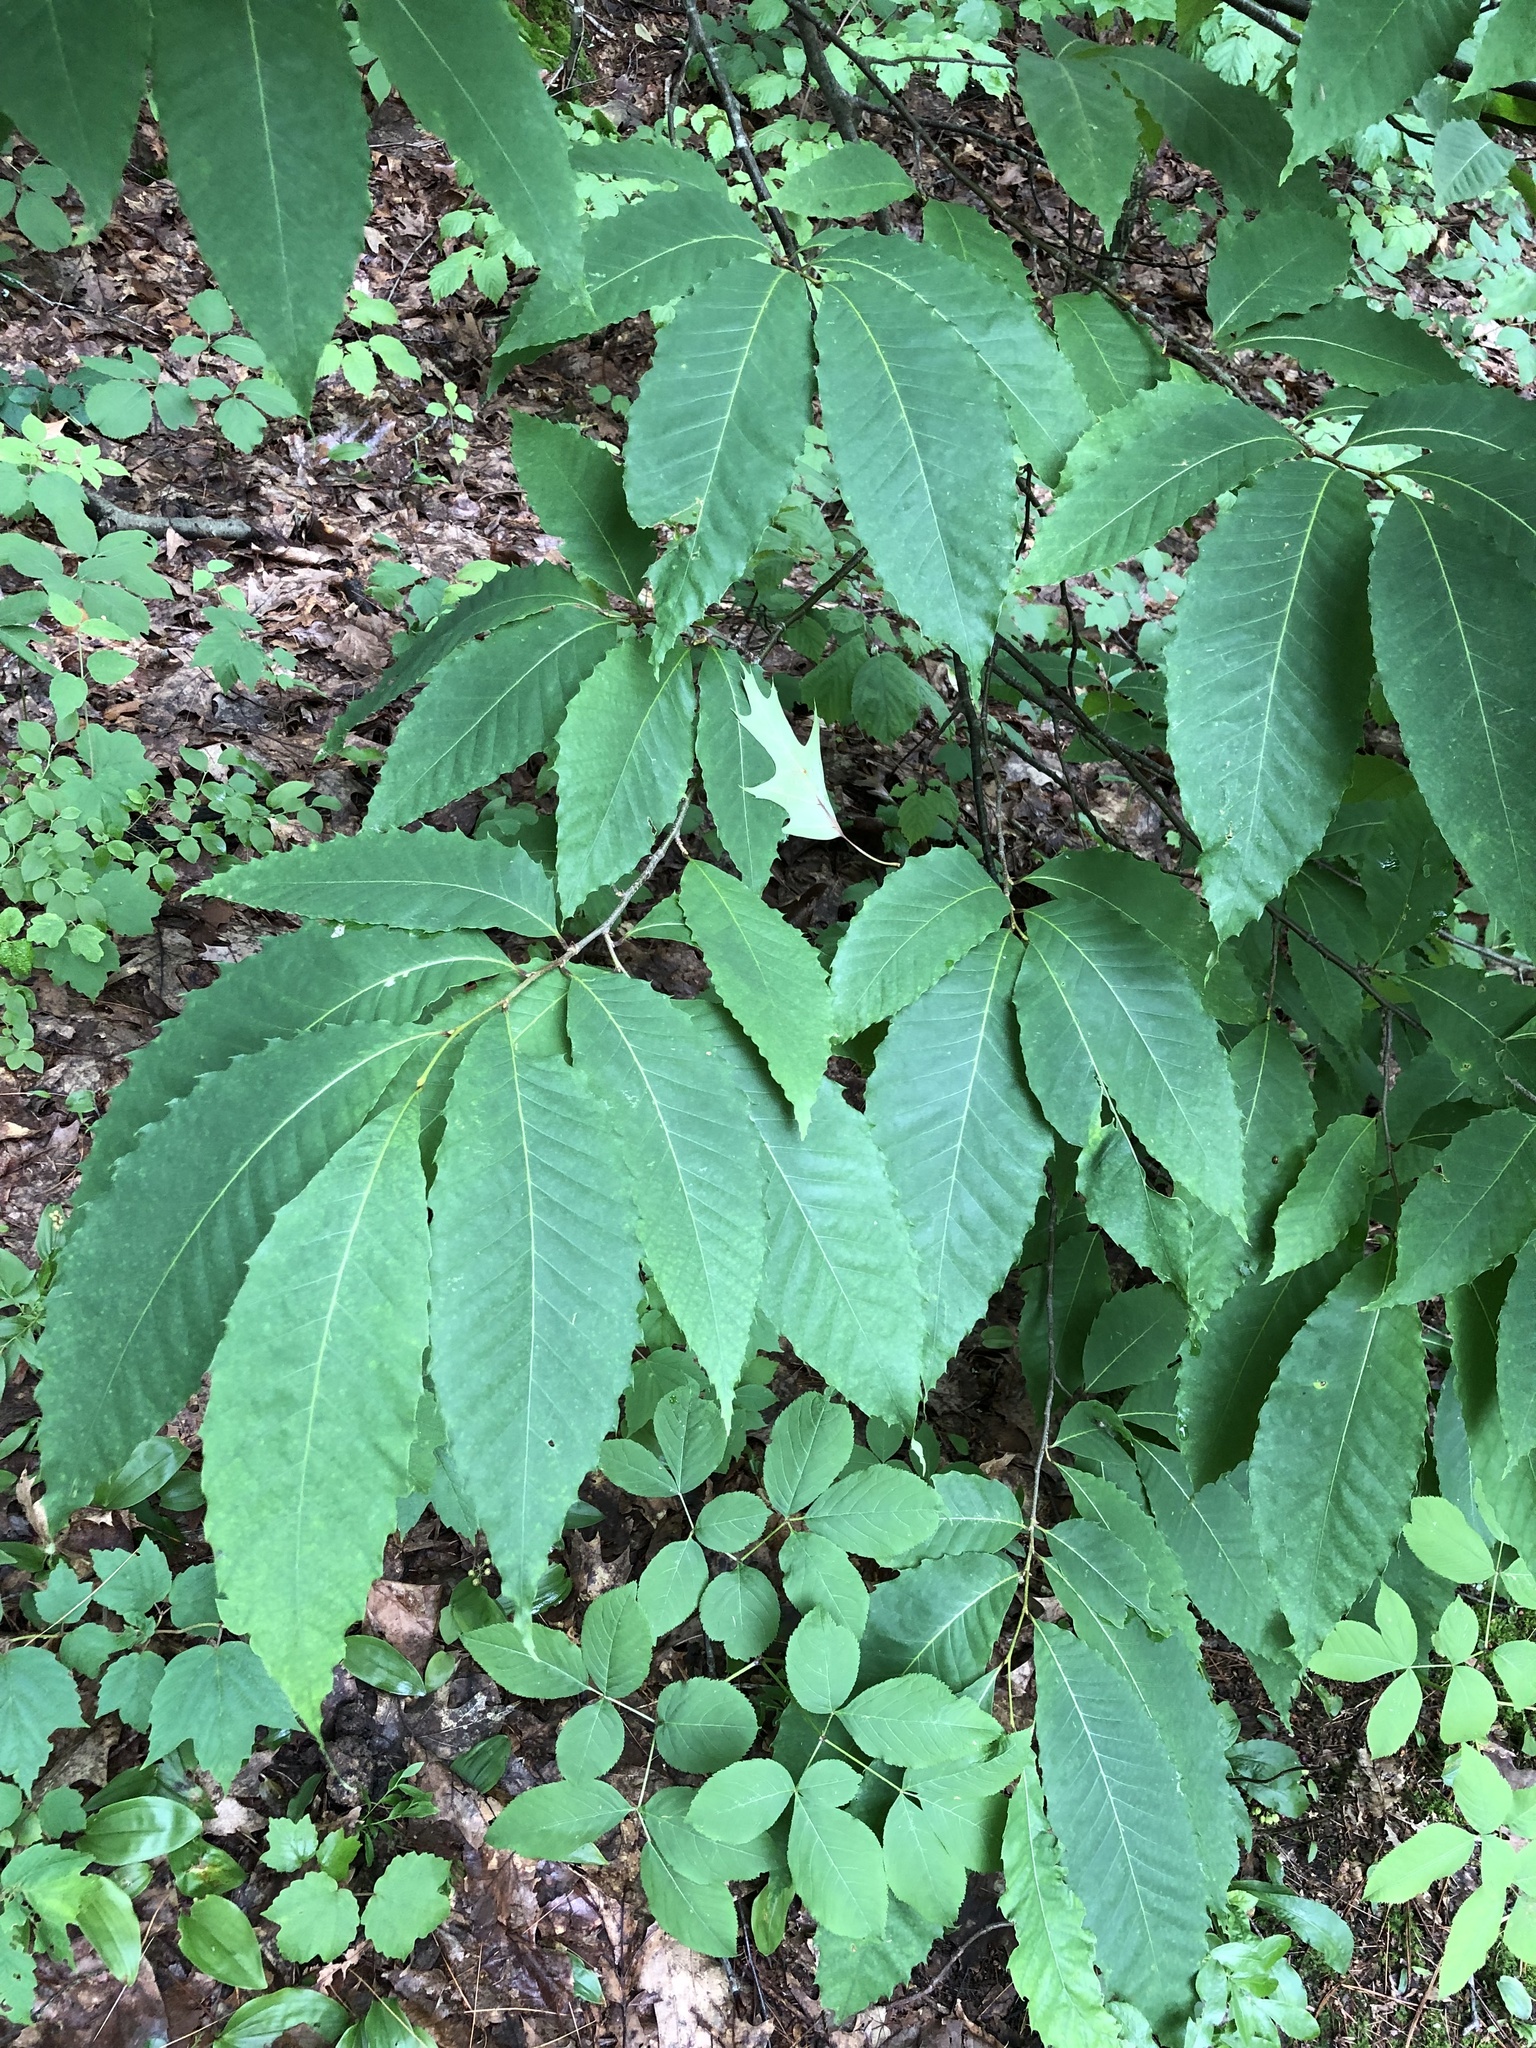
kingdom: Plantae
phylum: Tracheophyta
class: Magnoliopsida
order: Fagales
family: Fagaceae
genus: Castanea
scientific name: Castanea dentata
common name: American chestnut
